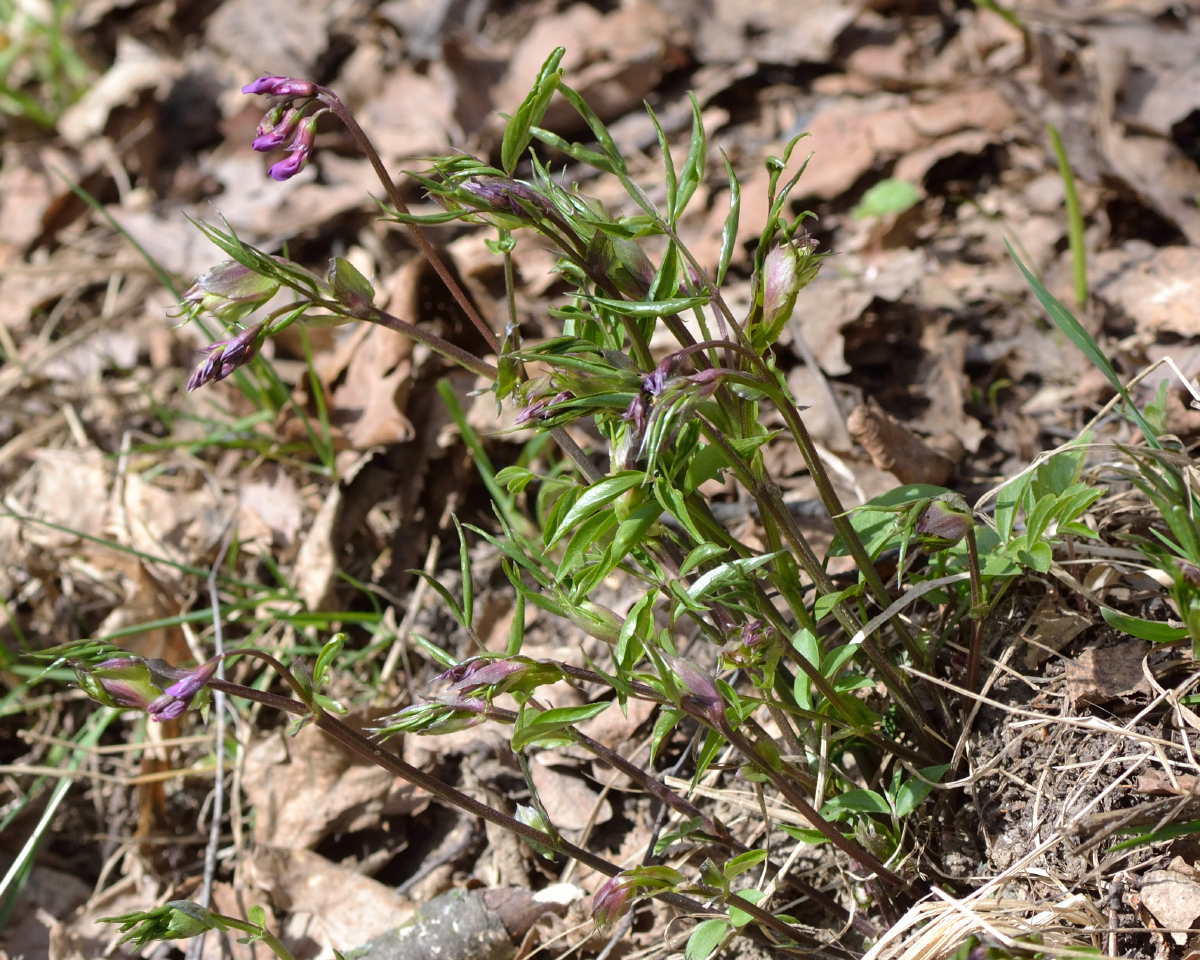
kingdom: Plantae
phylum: Tracheophyta
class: Magnoliopsida
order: Fabales
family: Fabaceae
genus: Lathyrus
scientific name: Lathyrus vernus
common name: Spring pea
